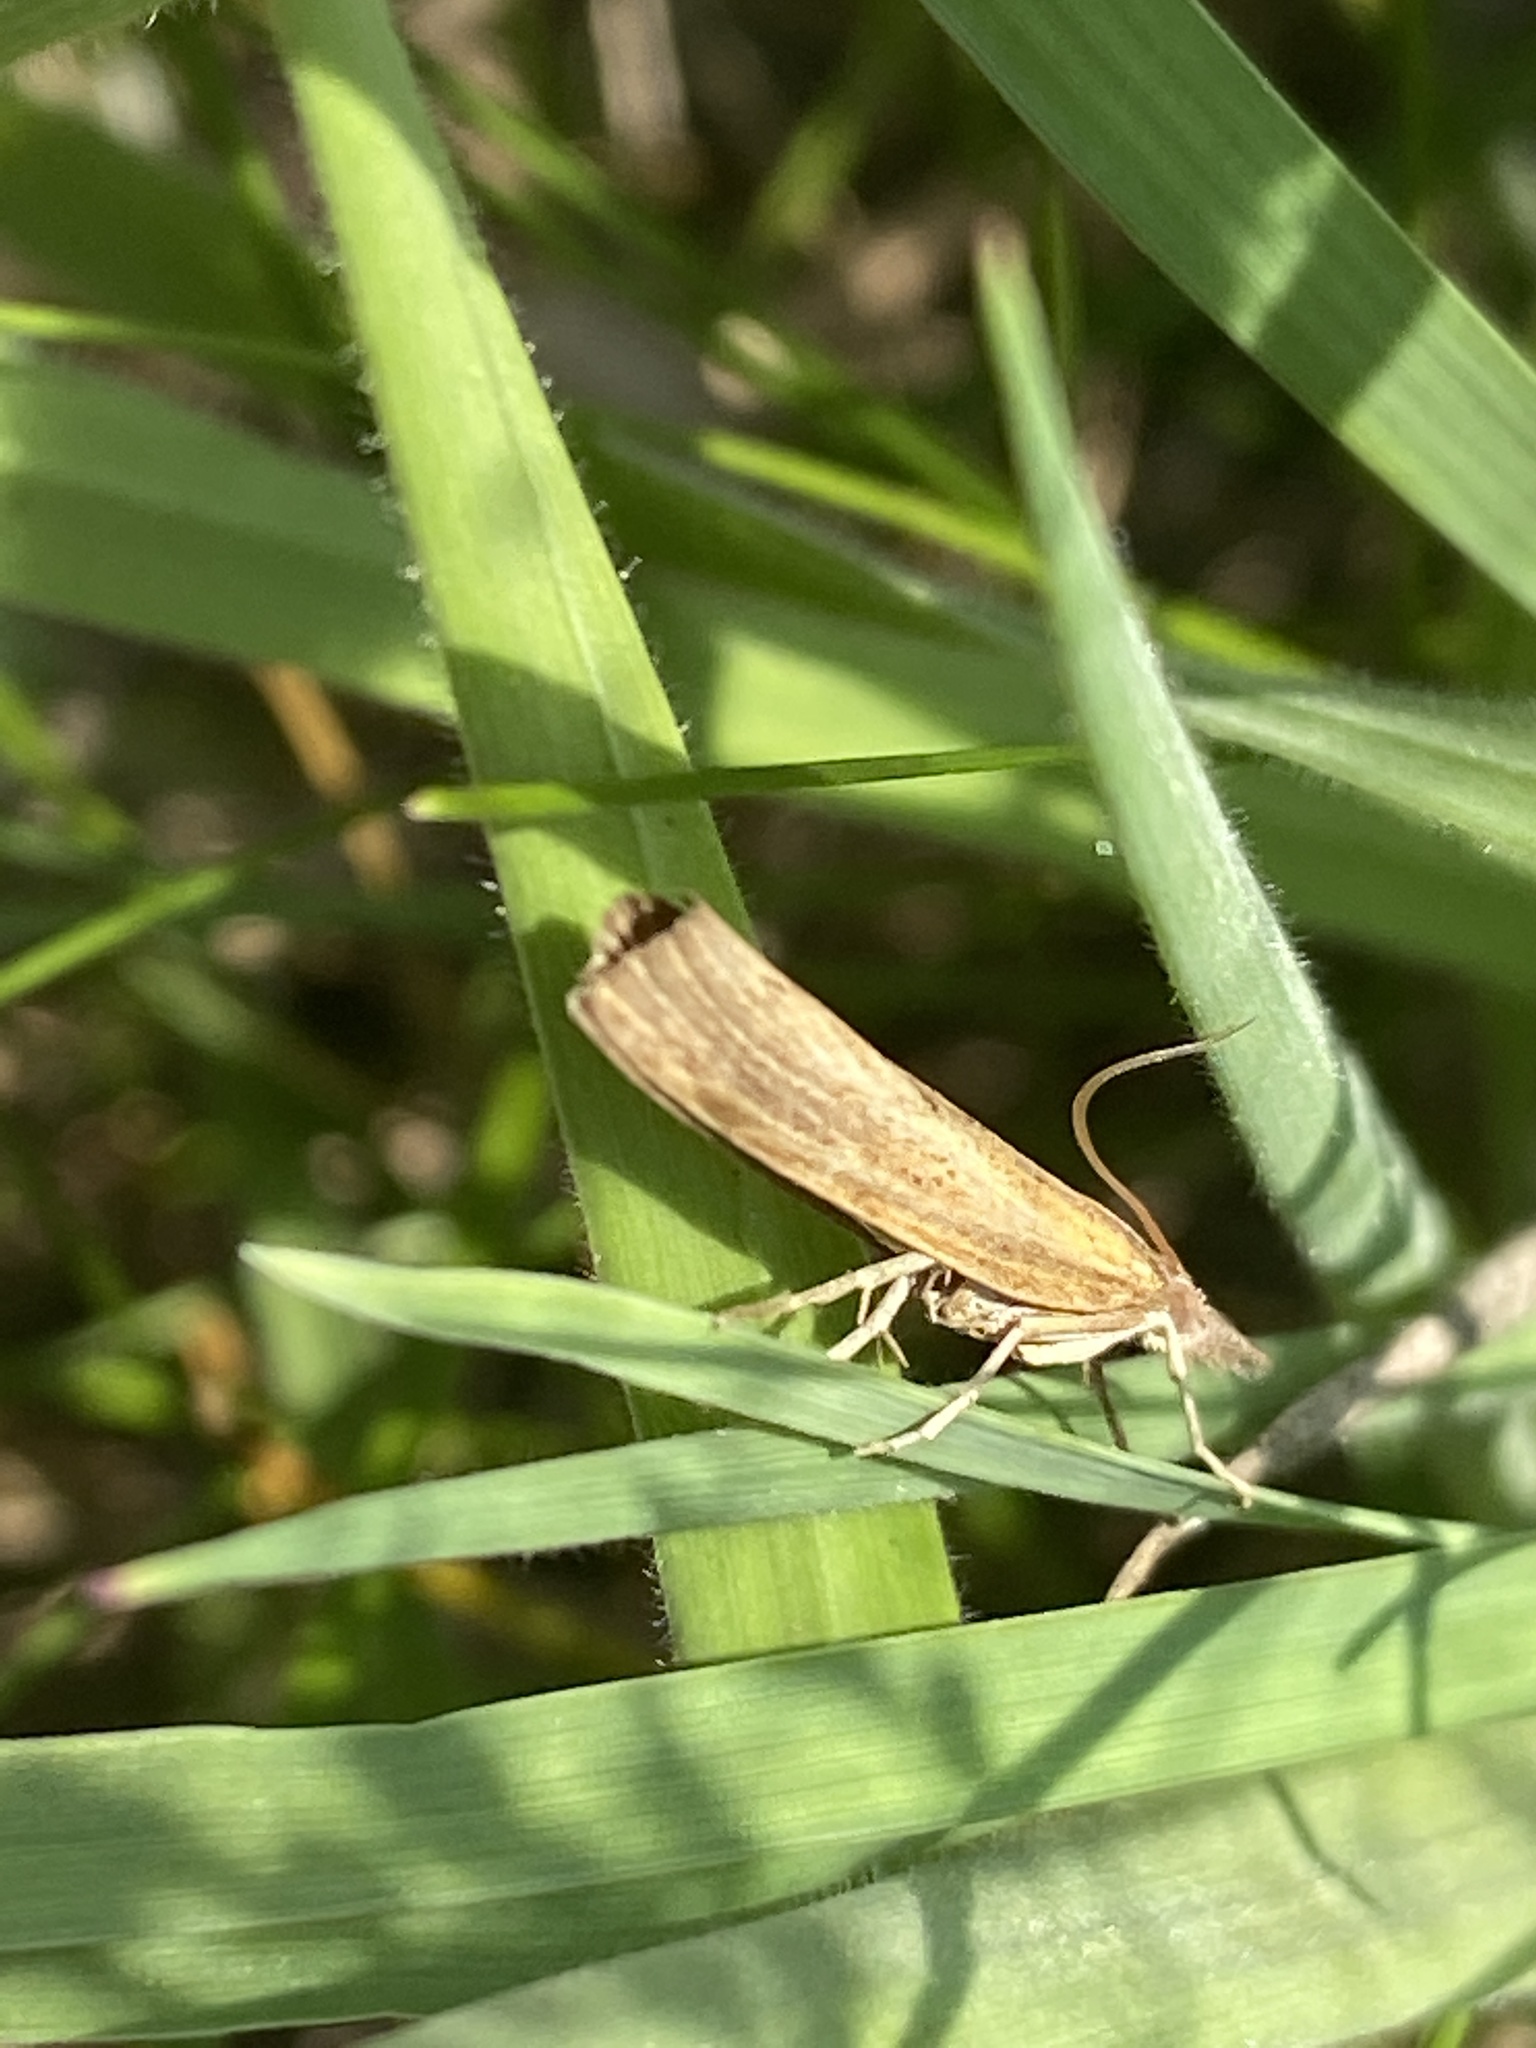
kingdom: Animalia
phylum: Arthropoda
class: Insecta
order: Lepidoptera
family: Crambidae
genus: Agriphila
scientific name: Agriphila tristellus
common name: Common grass-veneer
